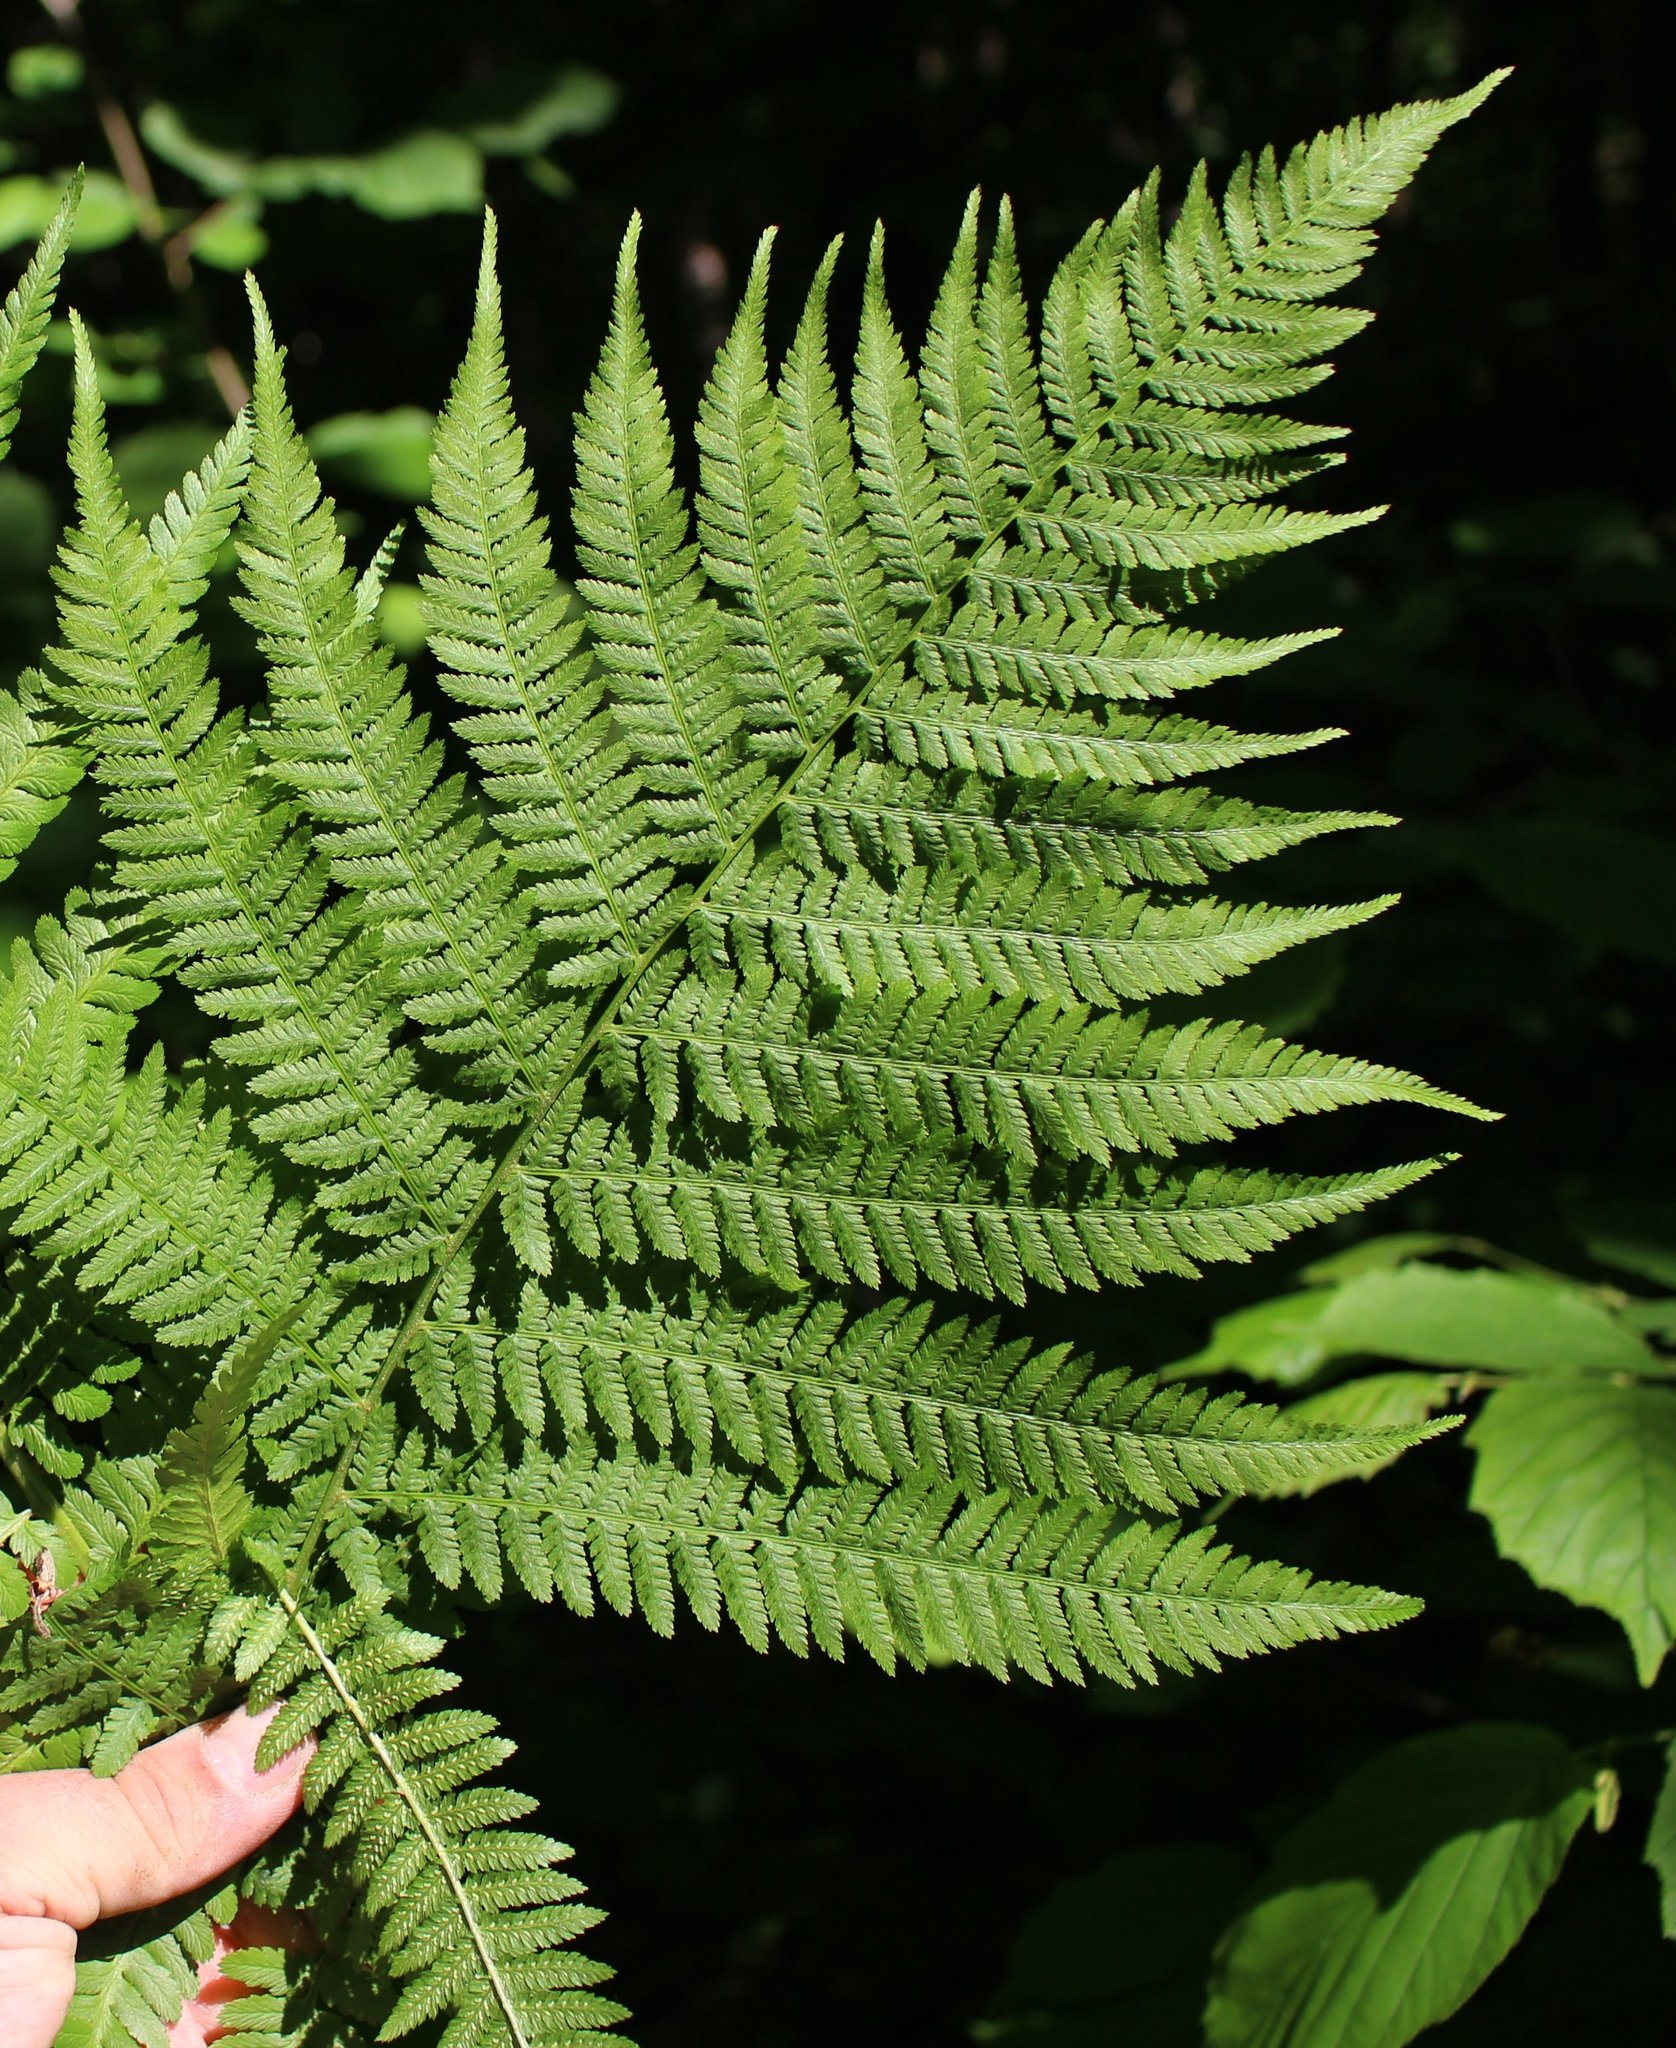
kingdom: Plantae
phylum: Tracheophyta
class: Polypodiopsida
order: Polypodiales
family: Athyriaceae
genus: Athyrium
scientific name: Athyrium filix-femina
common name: Lady fern
